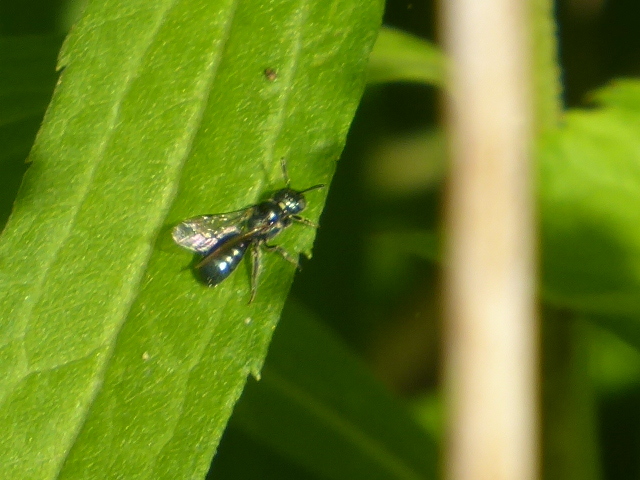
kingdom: Animalia
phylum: Arthropoda
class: Insecta
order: Hymenoptera
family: Apidae
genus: Zadontomerus
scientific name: Zadontomerus
